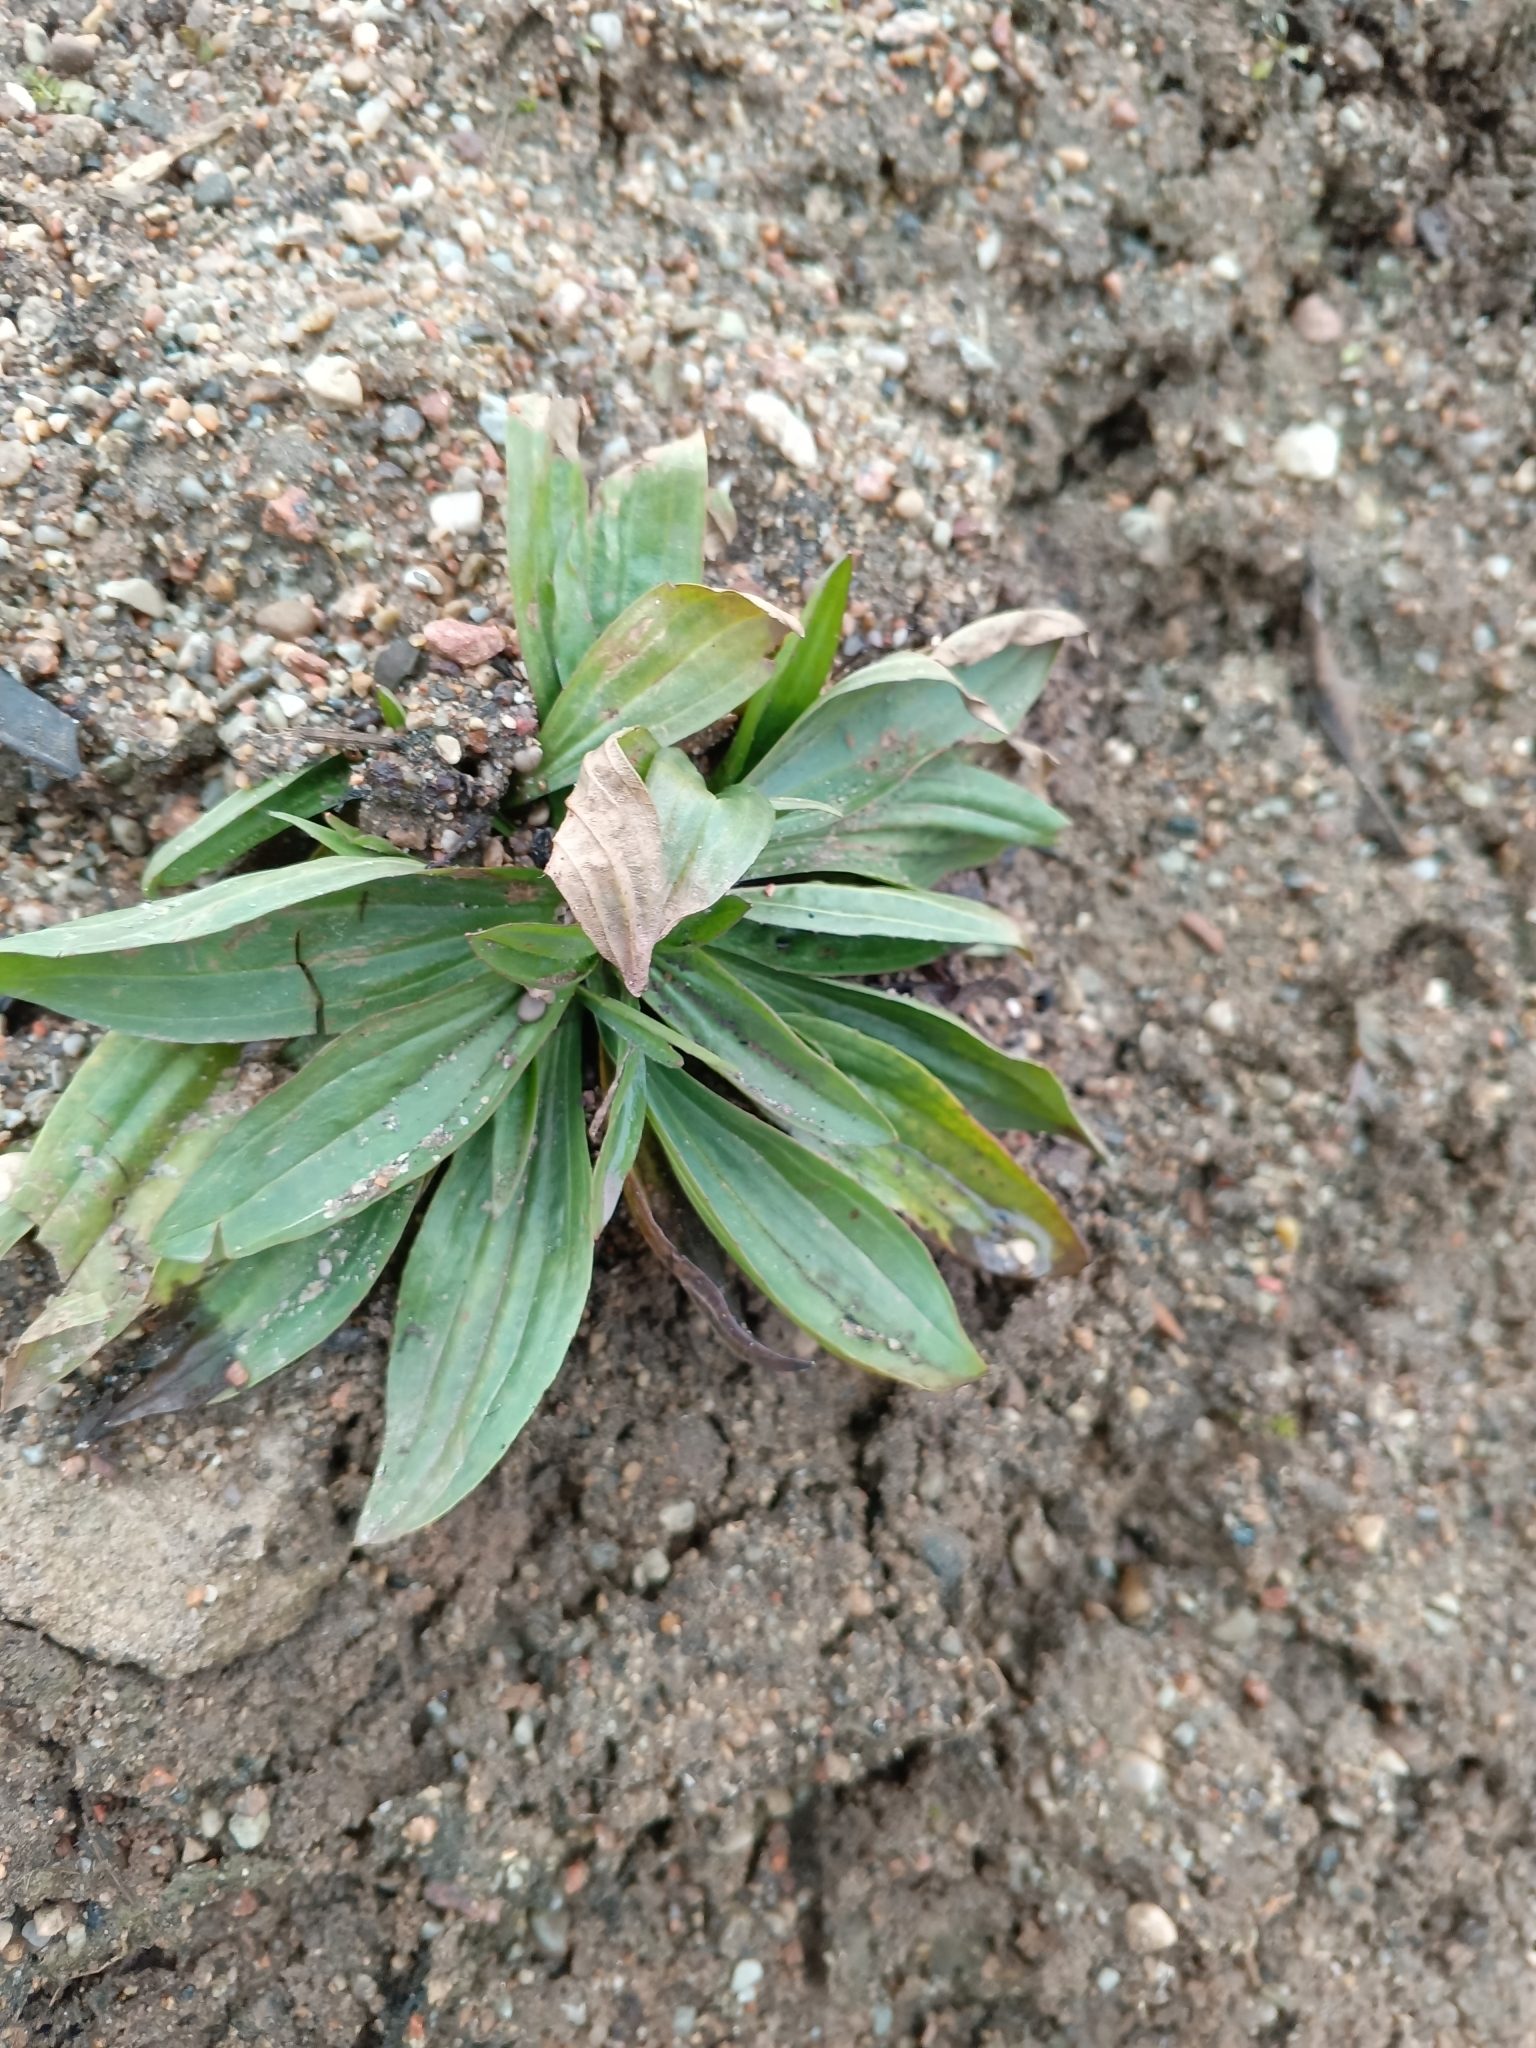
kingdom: Plantae
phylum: Tracheophyta
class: Magnoliopsida
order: Lamiales
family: Plantaginaceae
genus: Plantago
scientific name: Plantago lanceolata
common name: Ribwort plantain
